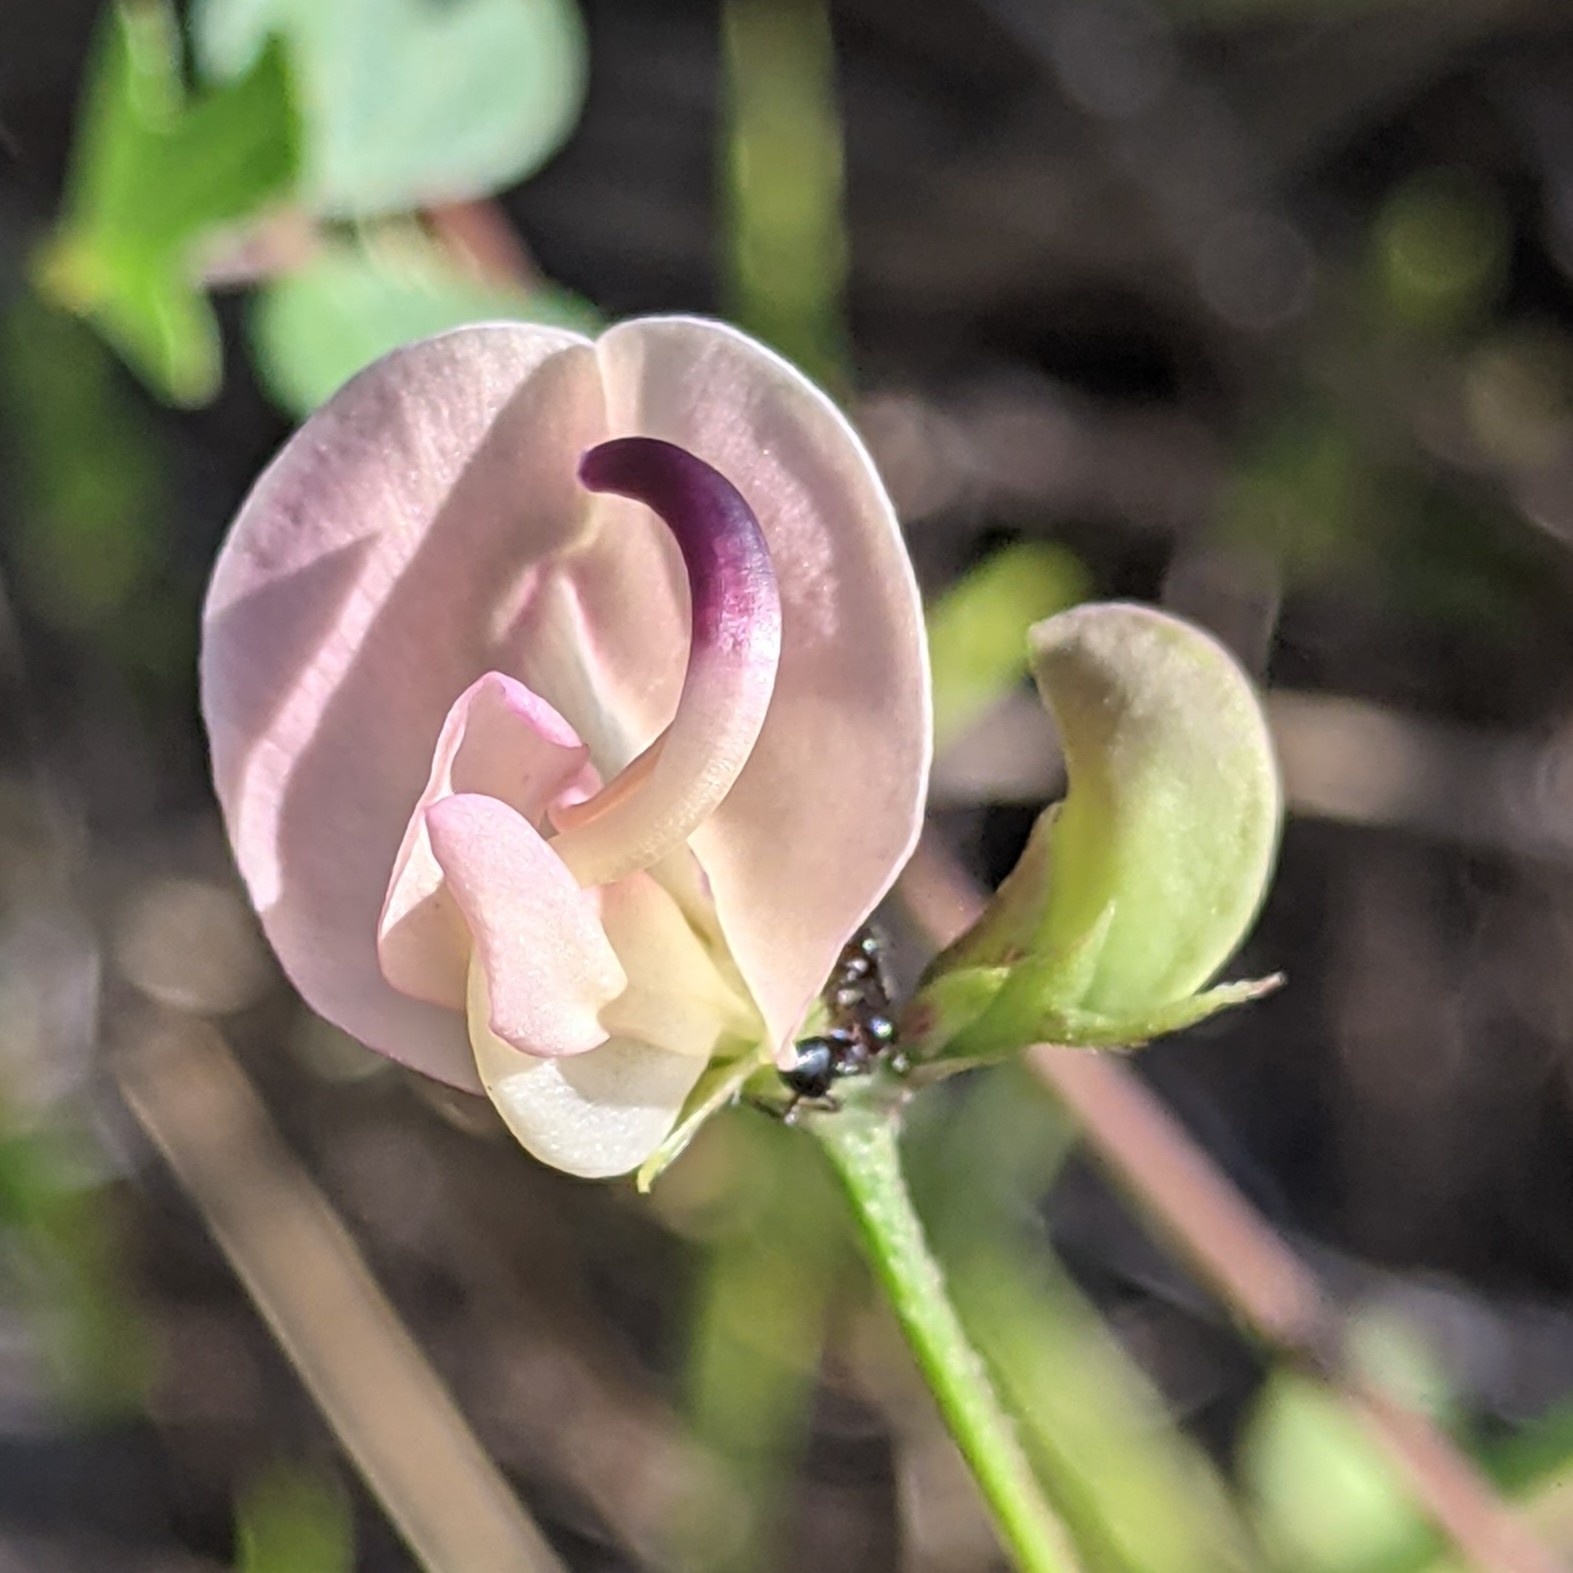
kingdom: Plantae
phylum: Tracheophyta
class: Magnoliopsida
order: Fabales
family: Fabaceae
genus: Strophostyles
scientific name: Strophostyles helvola
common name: Trailing wild bean
